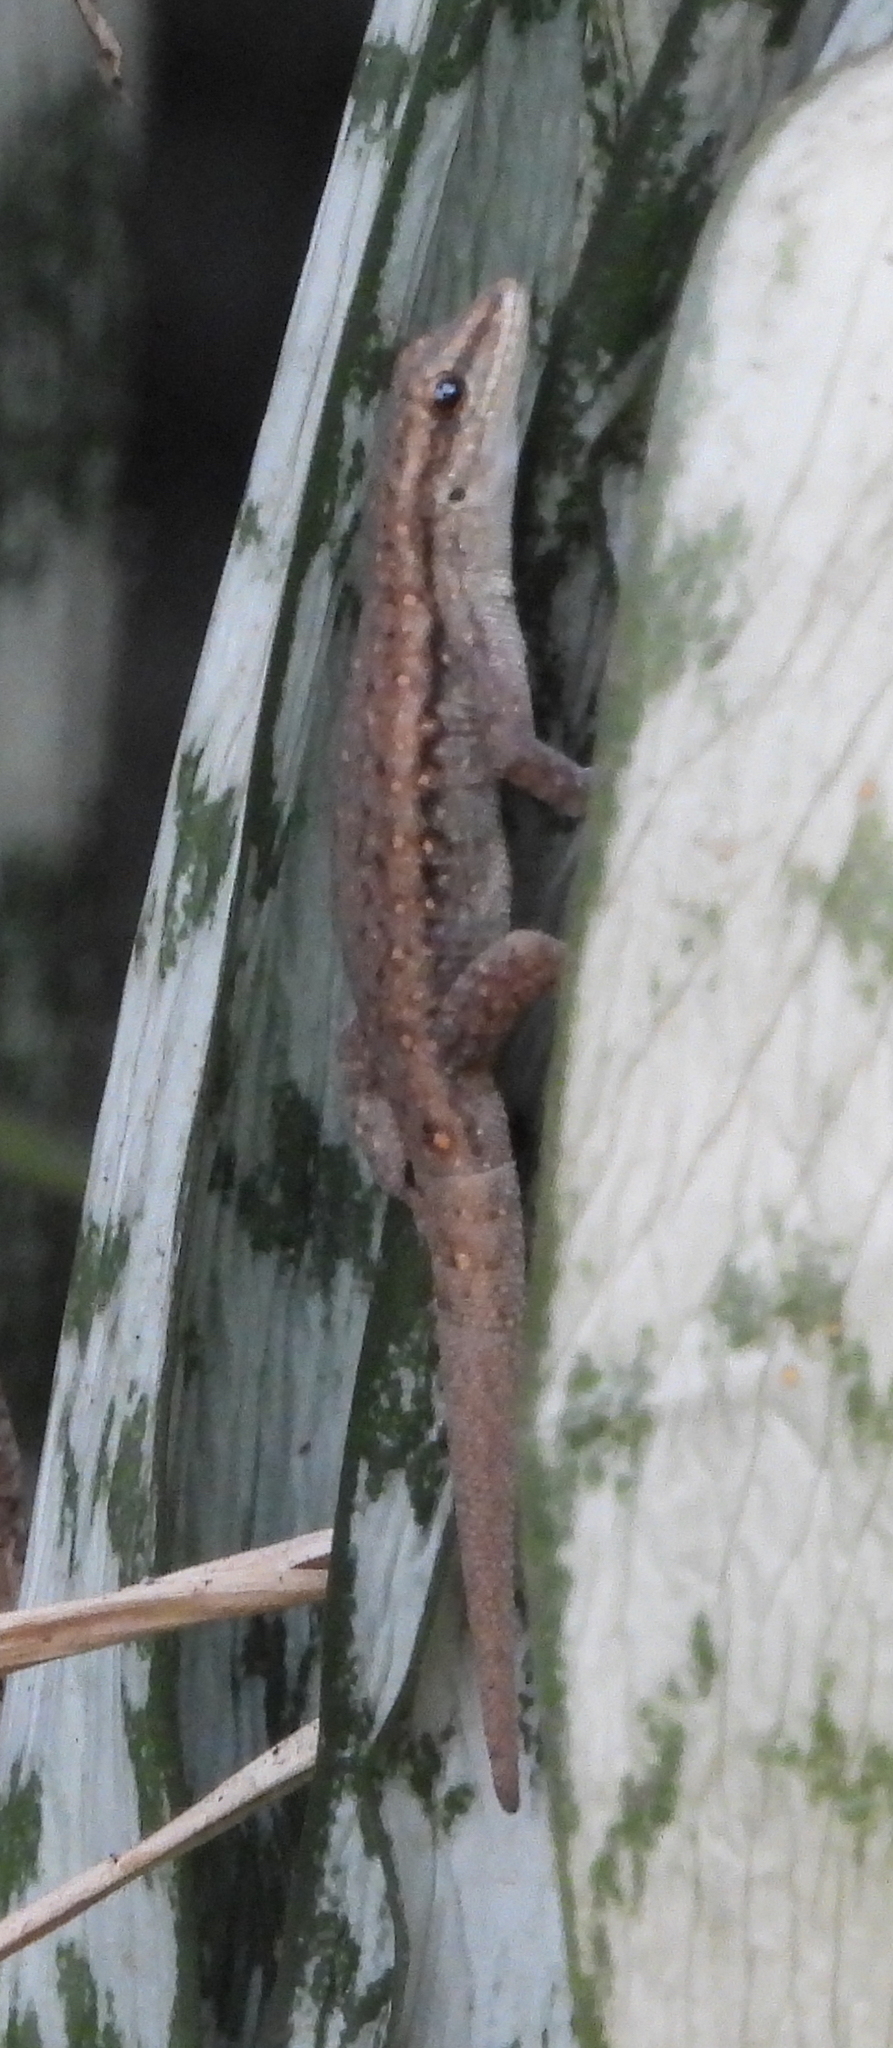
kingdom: Animalia
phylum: Chordata
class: Squamata
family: Gekkonidae
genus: Lygodactylus
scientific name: Lygodactylus capensis
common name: Cape dwarf gecko
